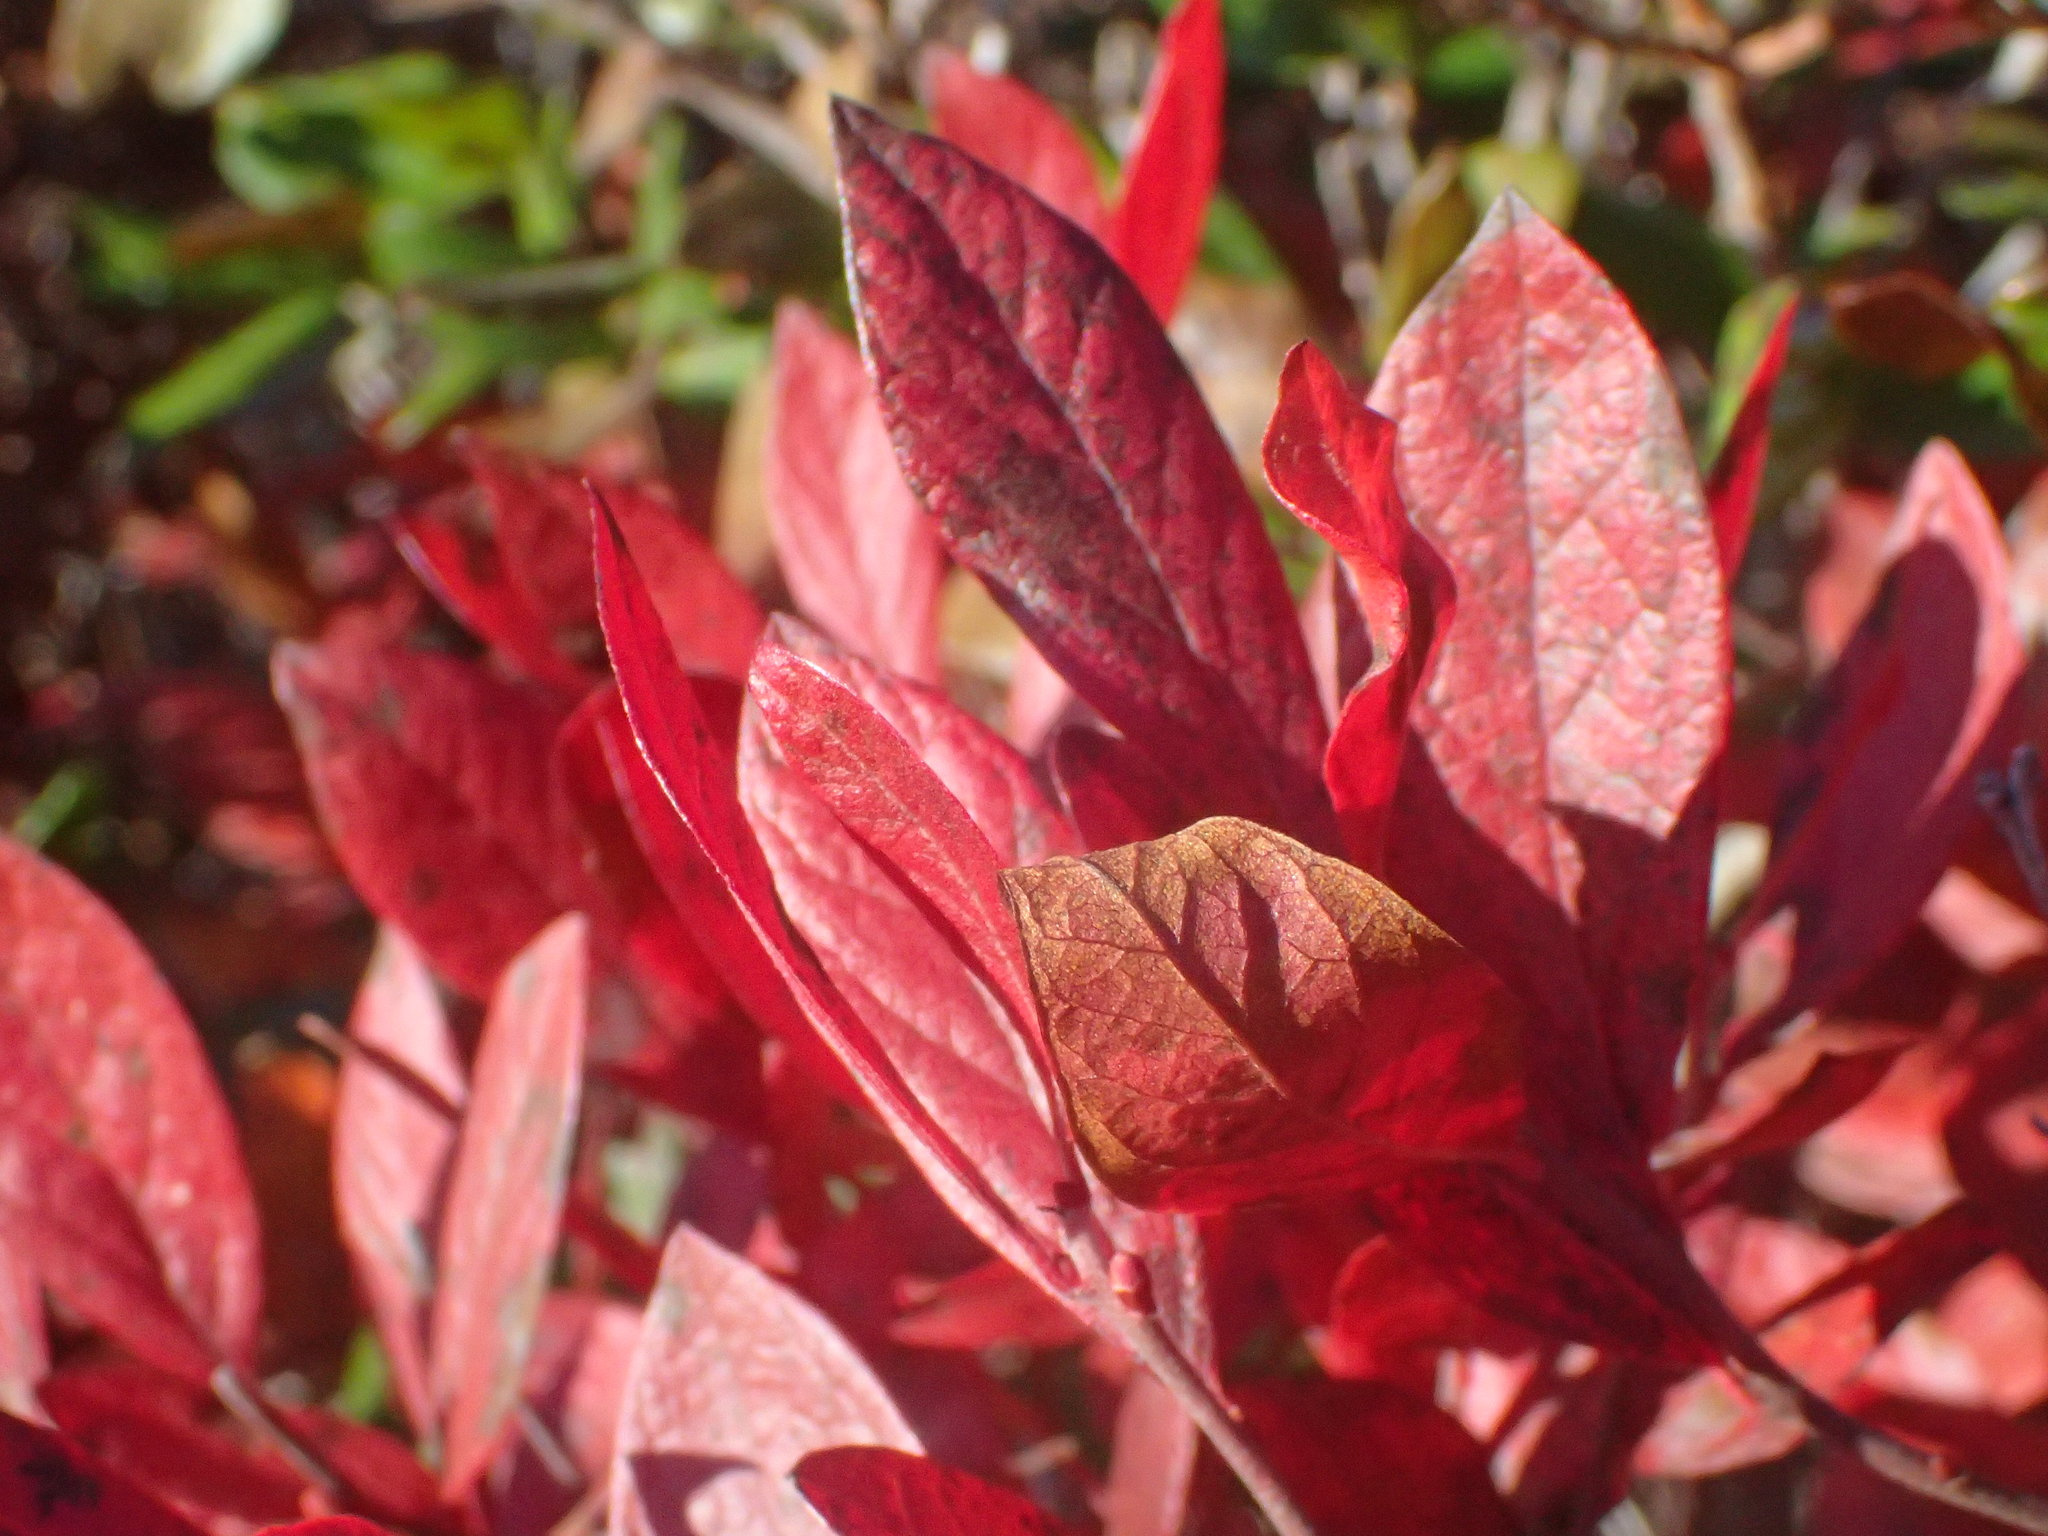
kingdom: Plantae
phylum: Tracheophyta
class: Magnoliopsida
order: Ericales
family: Ericaceae
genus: Gaylussacia
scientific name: Gaylussacia baccata
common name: Black huckleberry
